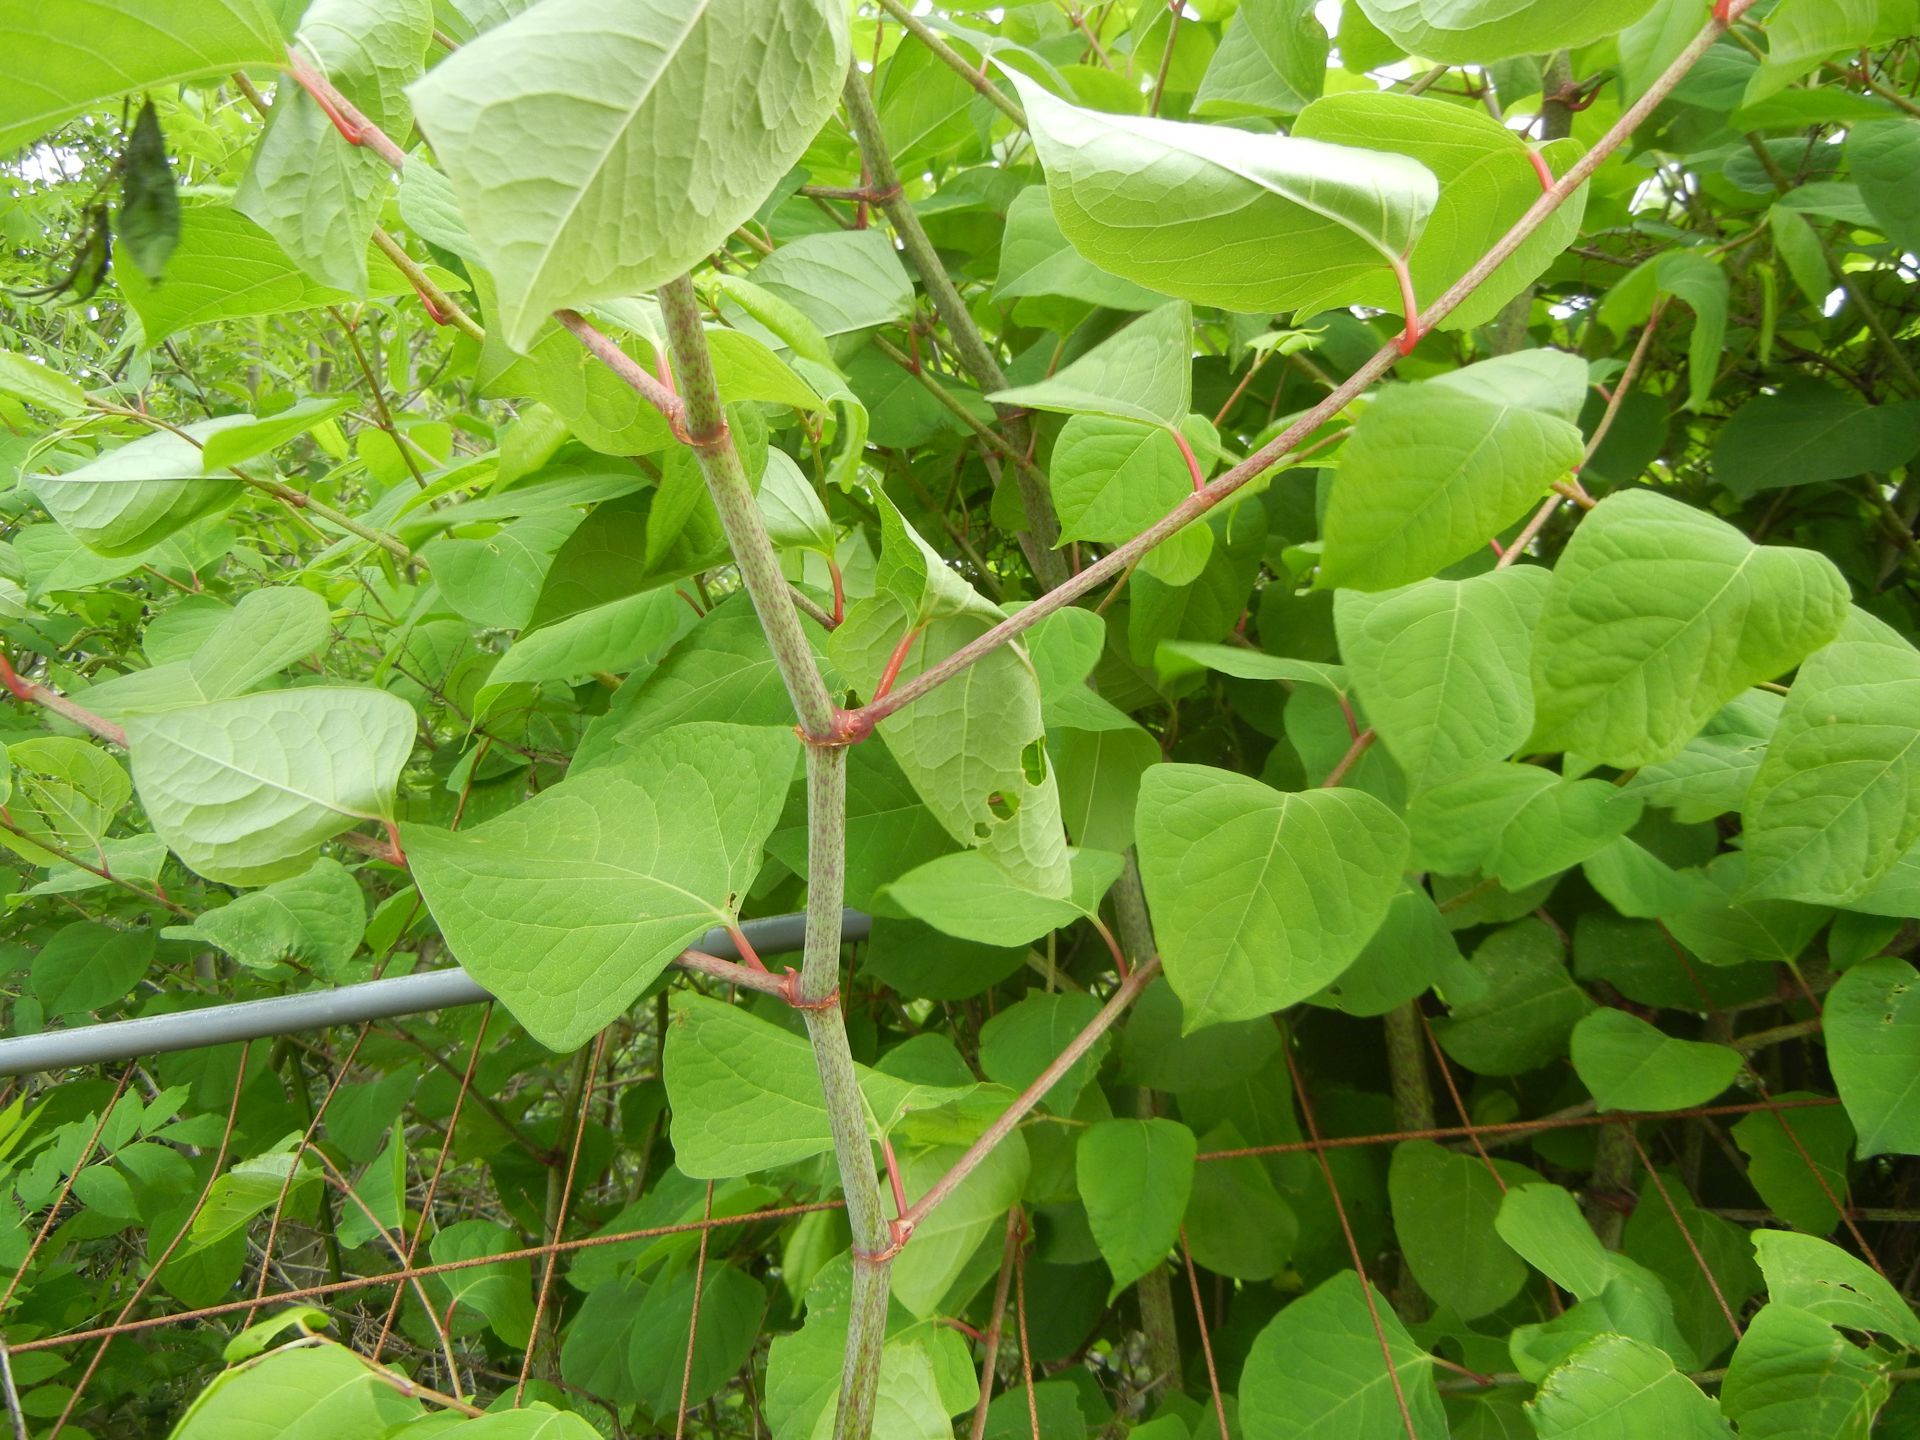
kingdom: Plantae
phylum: Tracheophyta
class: Magnoliopsida
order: Caryophyllales
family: Polygonaceae
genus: Reynoutria
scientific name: Reynoutria japonica
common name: Japanese knotweed
